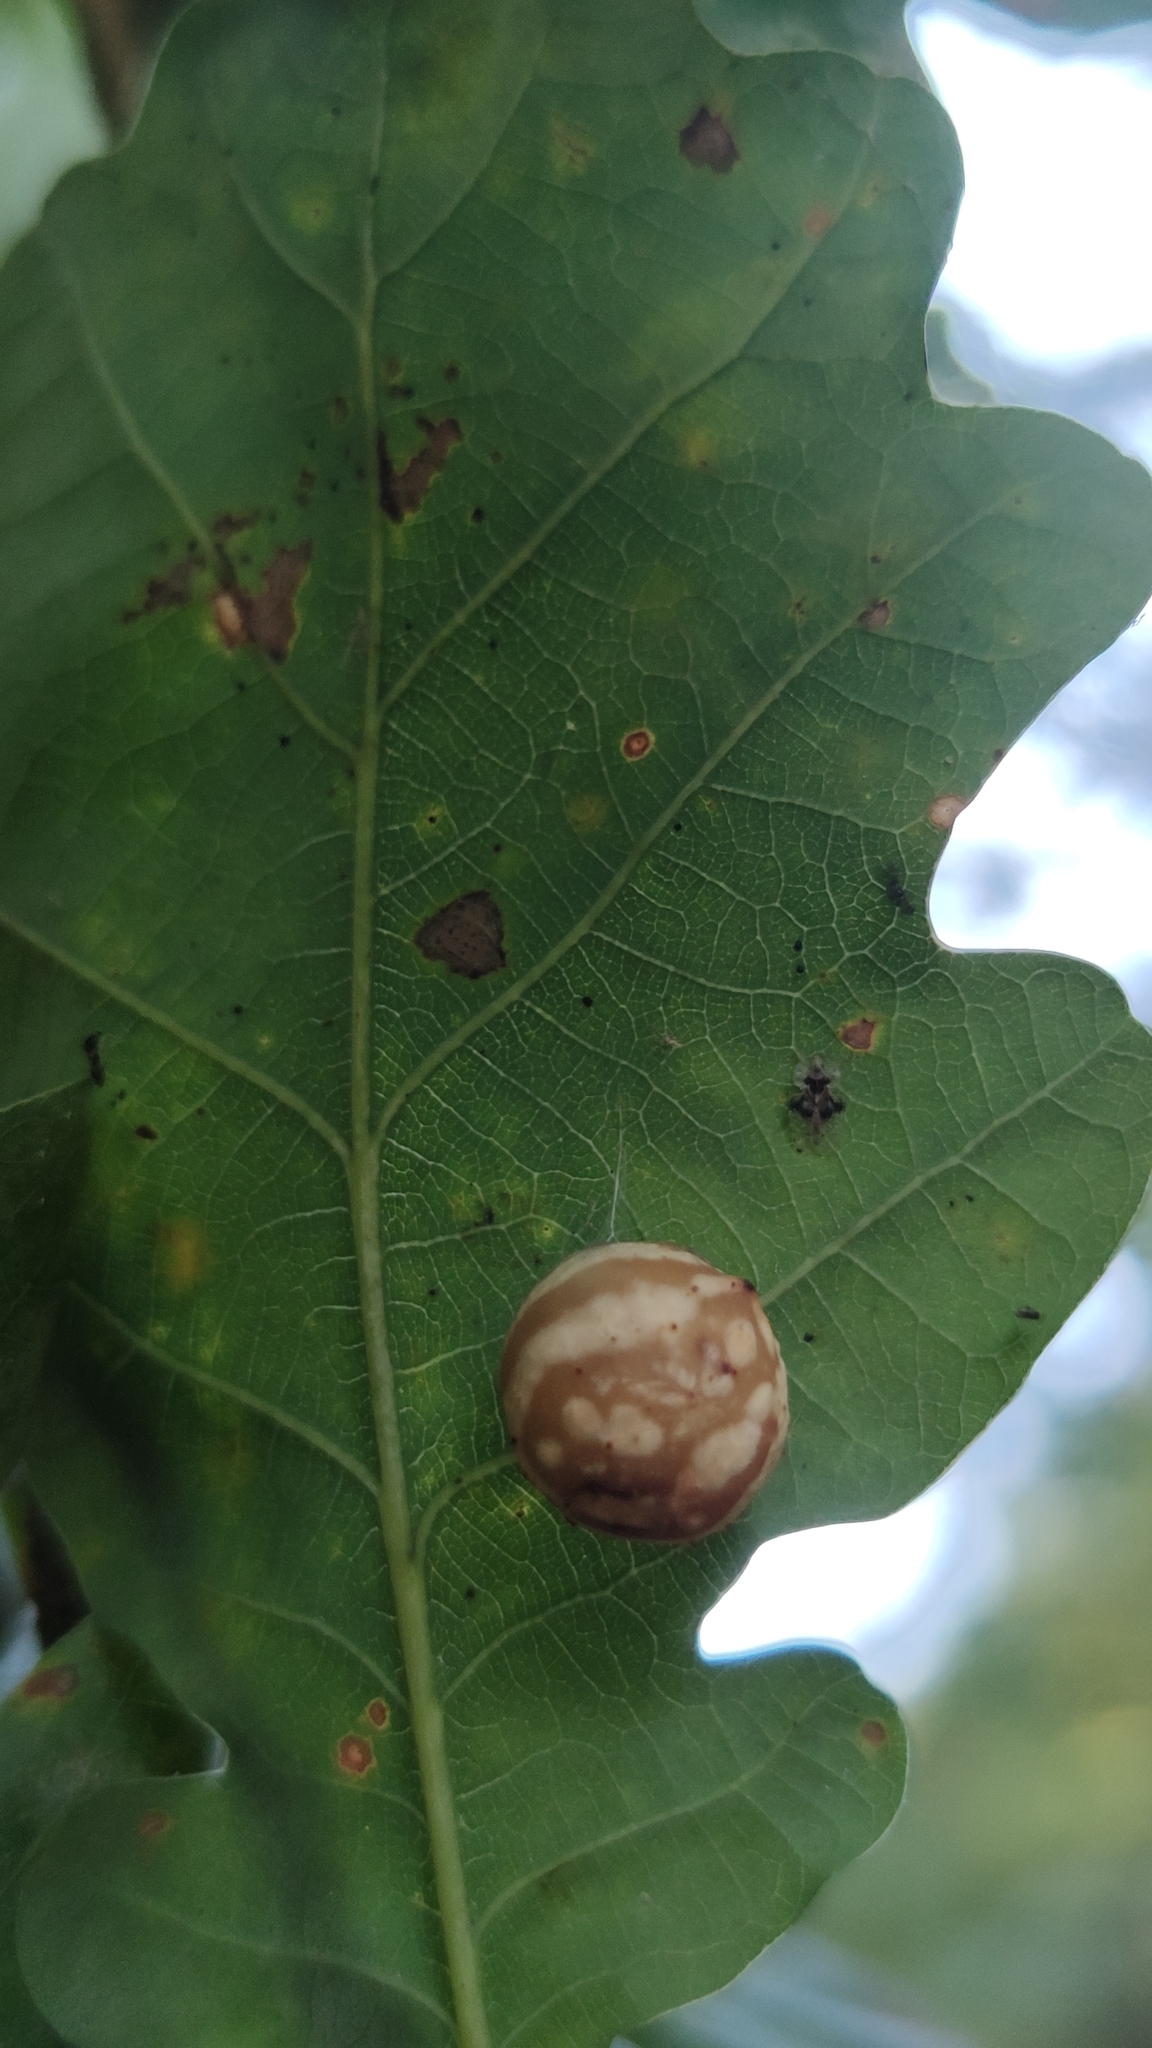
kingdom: Animalia
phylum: Arthropoda
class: Insecta
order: Hymenoptera
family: Cynipidae
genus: Cynips
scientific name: Cynips longiventris
